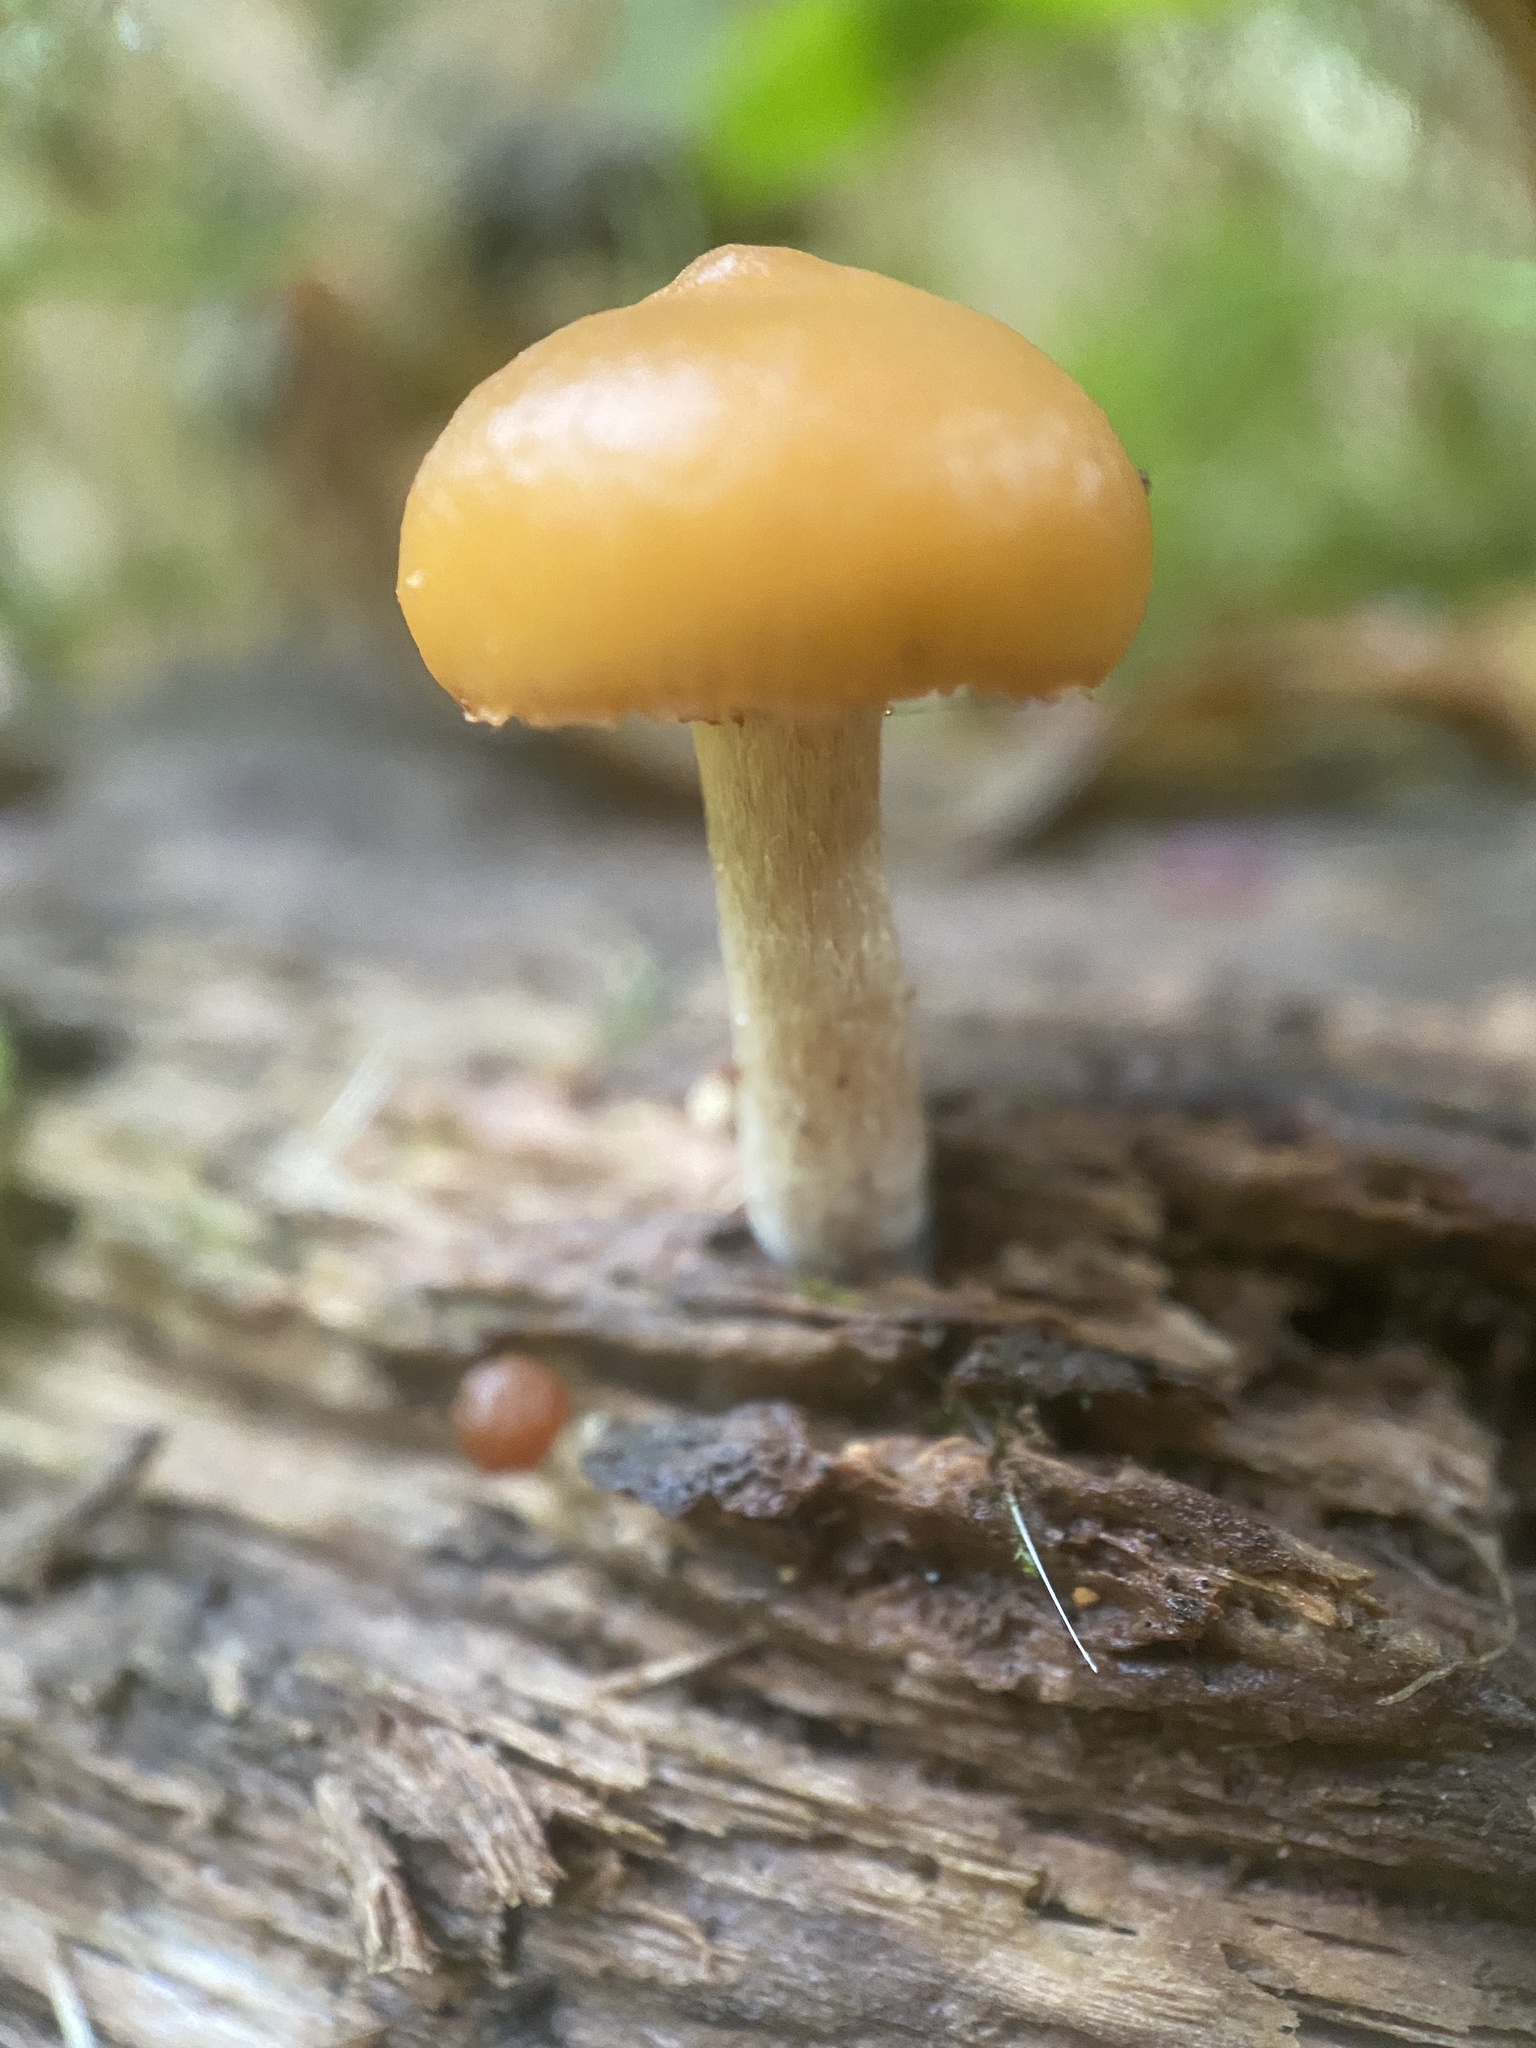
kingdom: Fungi
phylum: Basidiomycota
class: Agaricomycetes
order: Agaricales
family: Hymenogastraceae
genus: Galerina
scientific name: Galerina marginata
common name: Funeral bell
